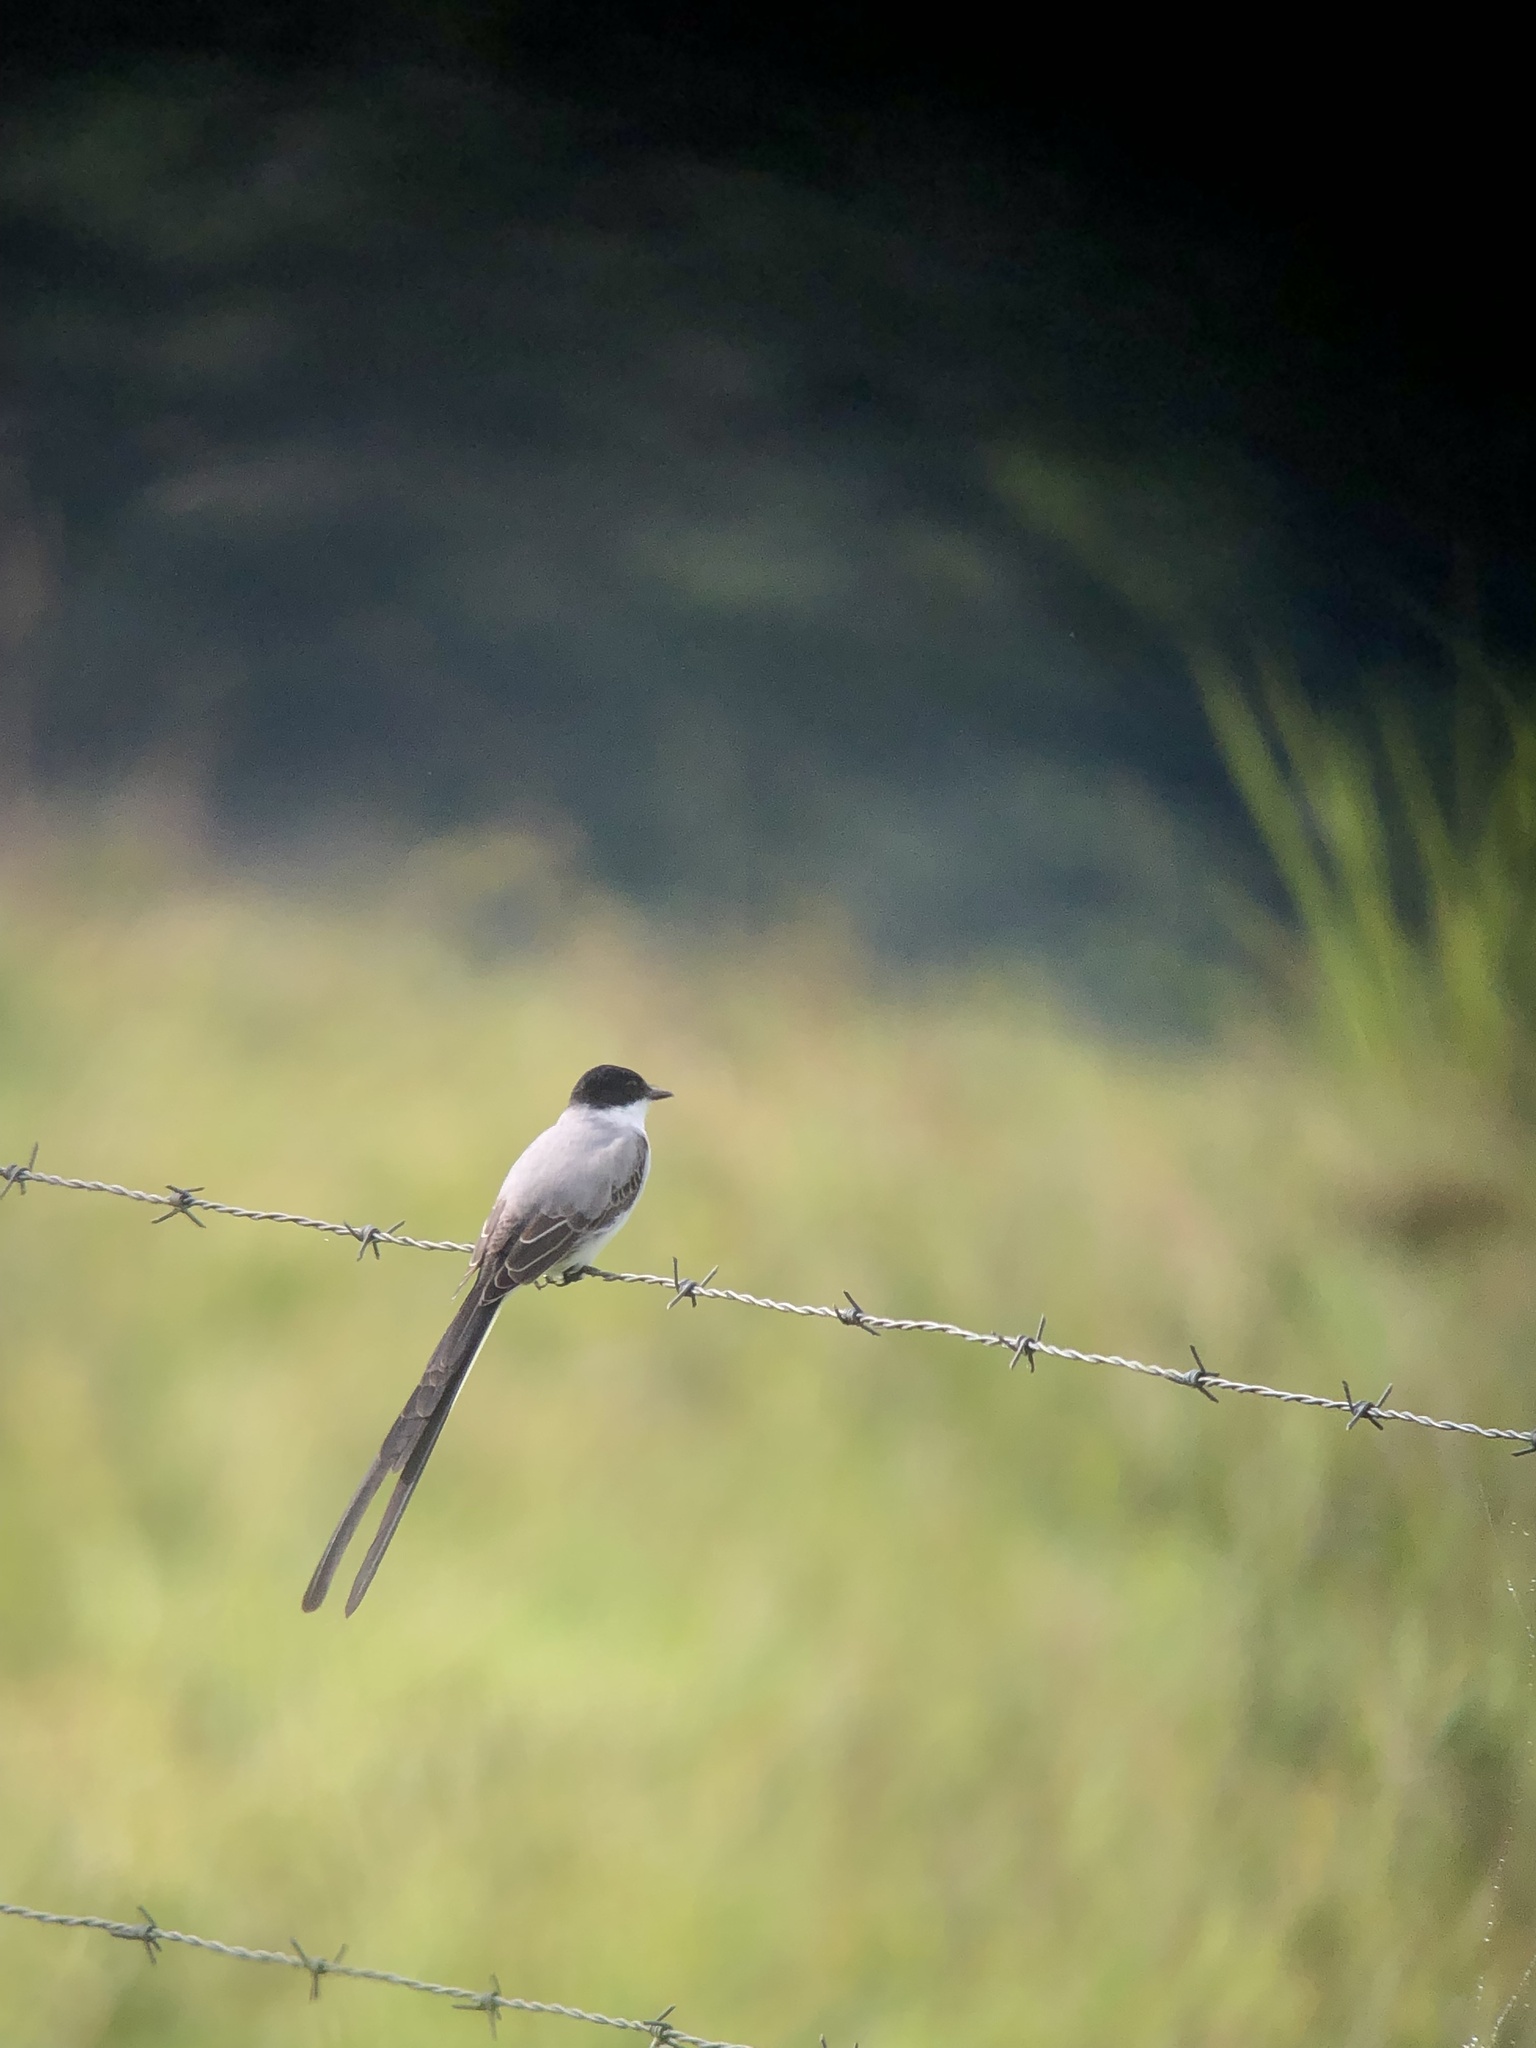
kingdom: Animalia
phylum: Chordata
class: Aves
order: Passeriformes
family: Tyrannidae
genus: Tyrannus
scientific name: Tyrannus savana
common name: Fork-tailed flycatcher
